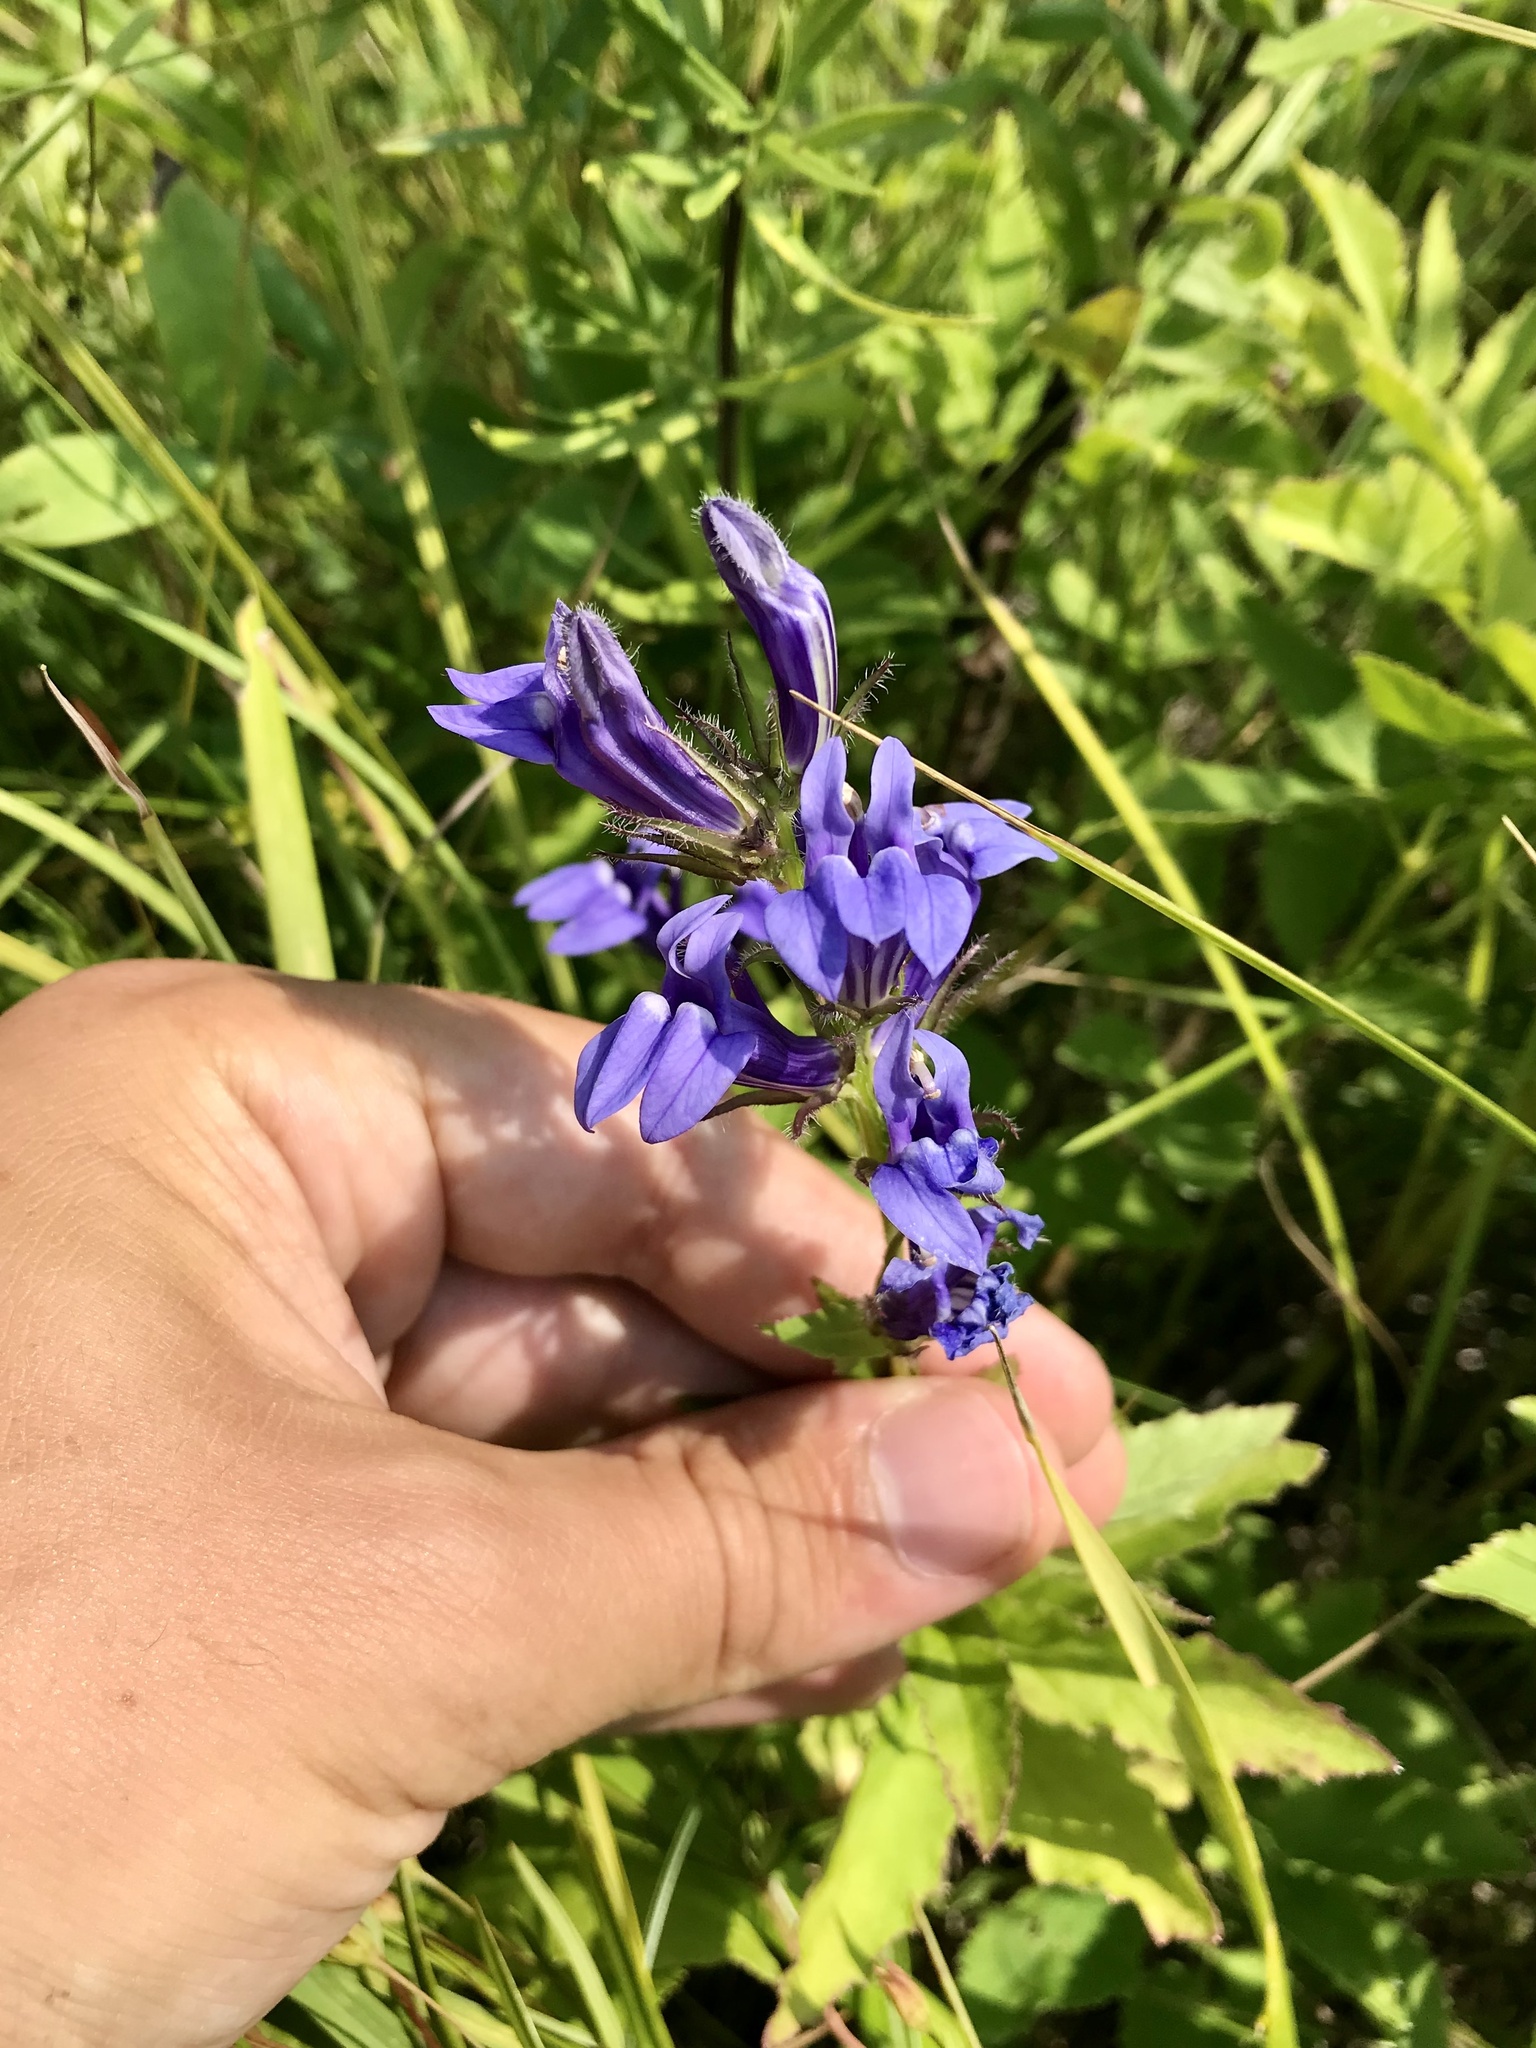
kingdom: Plantae
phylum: Tracheophyta
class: Magnoliopsida
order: Asterales
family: Campanulaceae
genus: Lobelia
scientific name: Lobelia siphilitica
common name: Great lobelia
